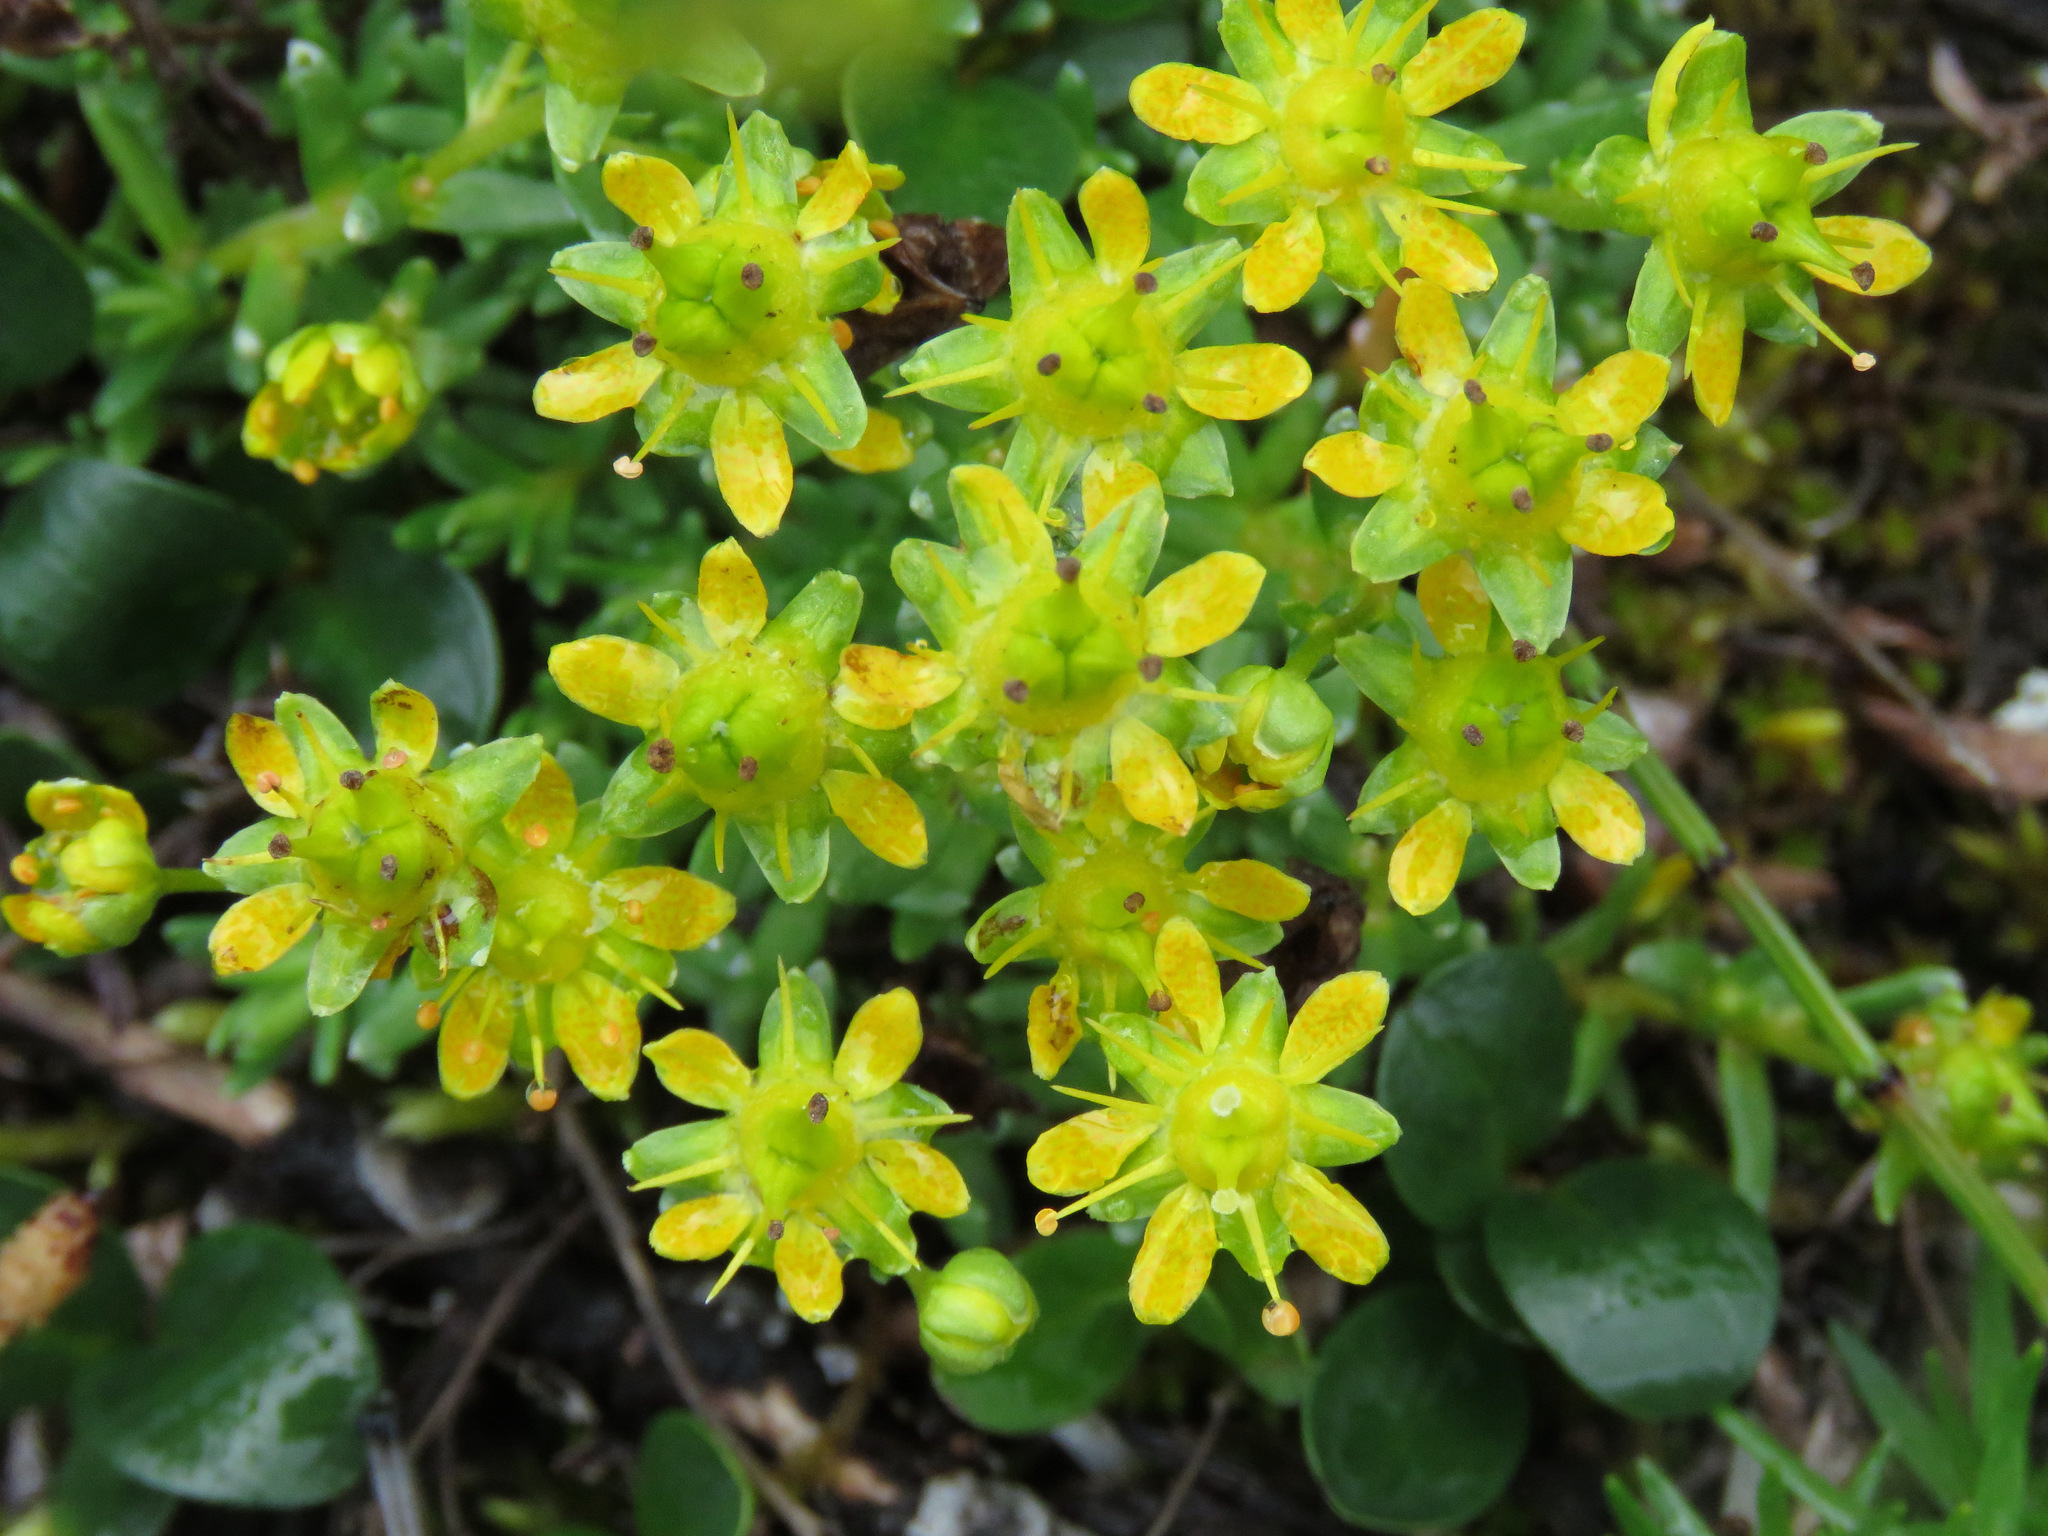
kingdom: Plantae
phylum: Tracheophyta
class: Magnoliopsida
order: Saxifragales
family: Saxifragaceae
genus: Saxifraga
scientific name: Saxifraga aizoides
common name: Yellow mountain saxifrage
